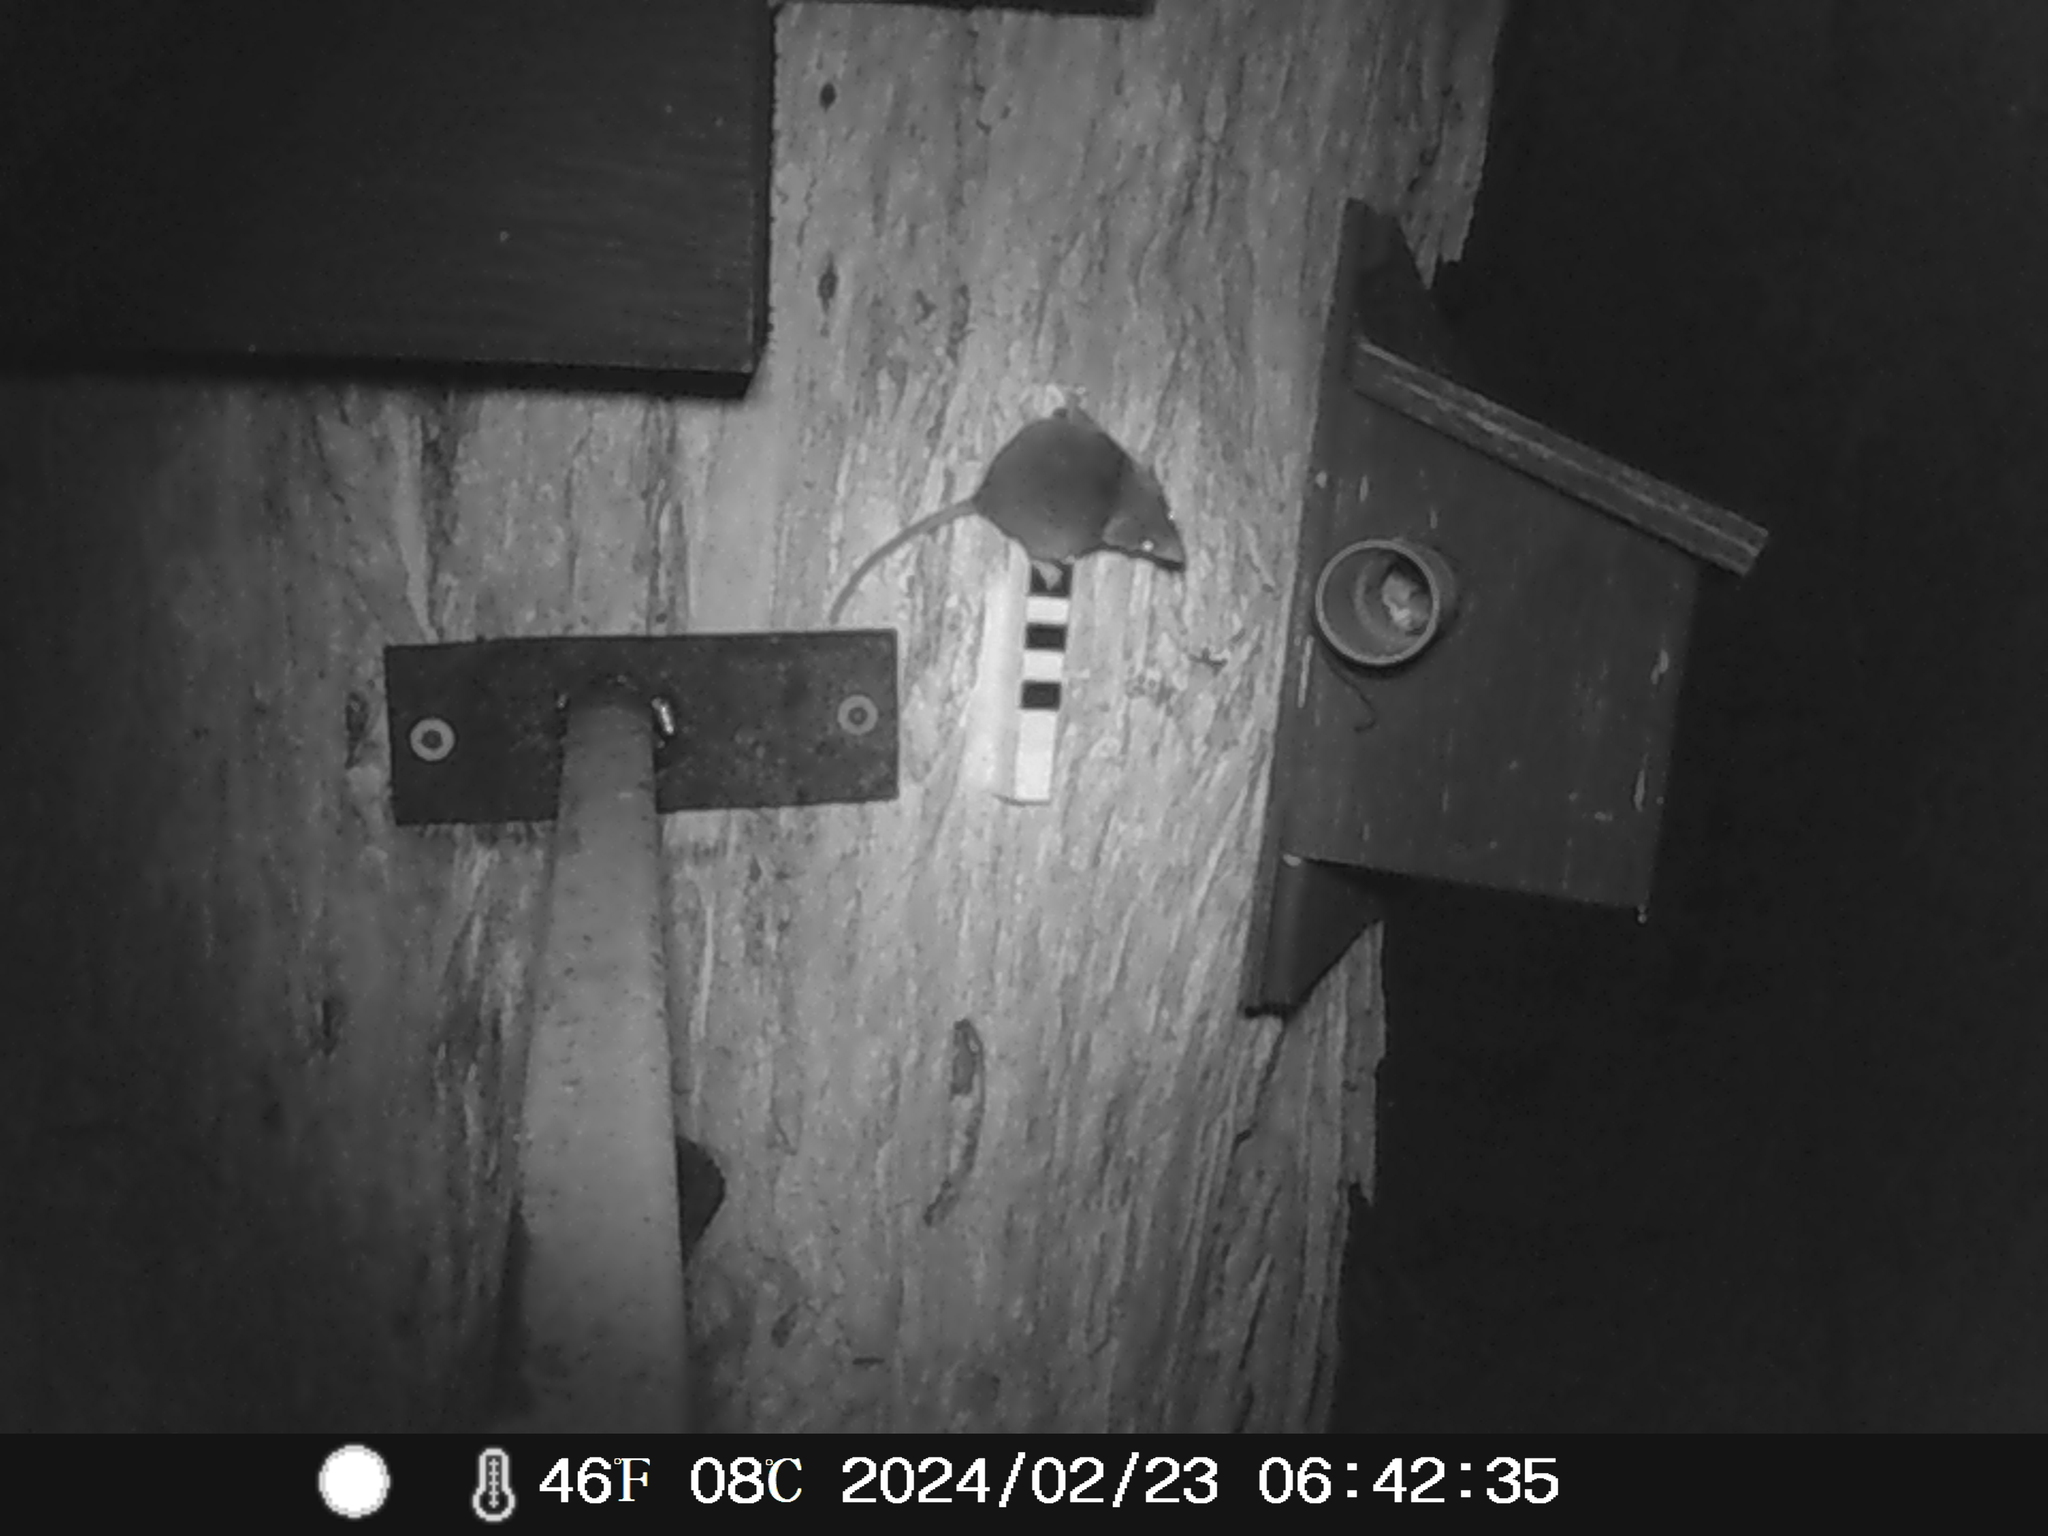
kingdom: Animalia
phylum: Chordata
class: Mammalia
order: Dasyuromorphia
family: Dasyuridae
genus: Antechinus
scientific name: Antechinus agilis
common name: Agile antechinus
